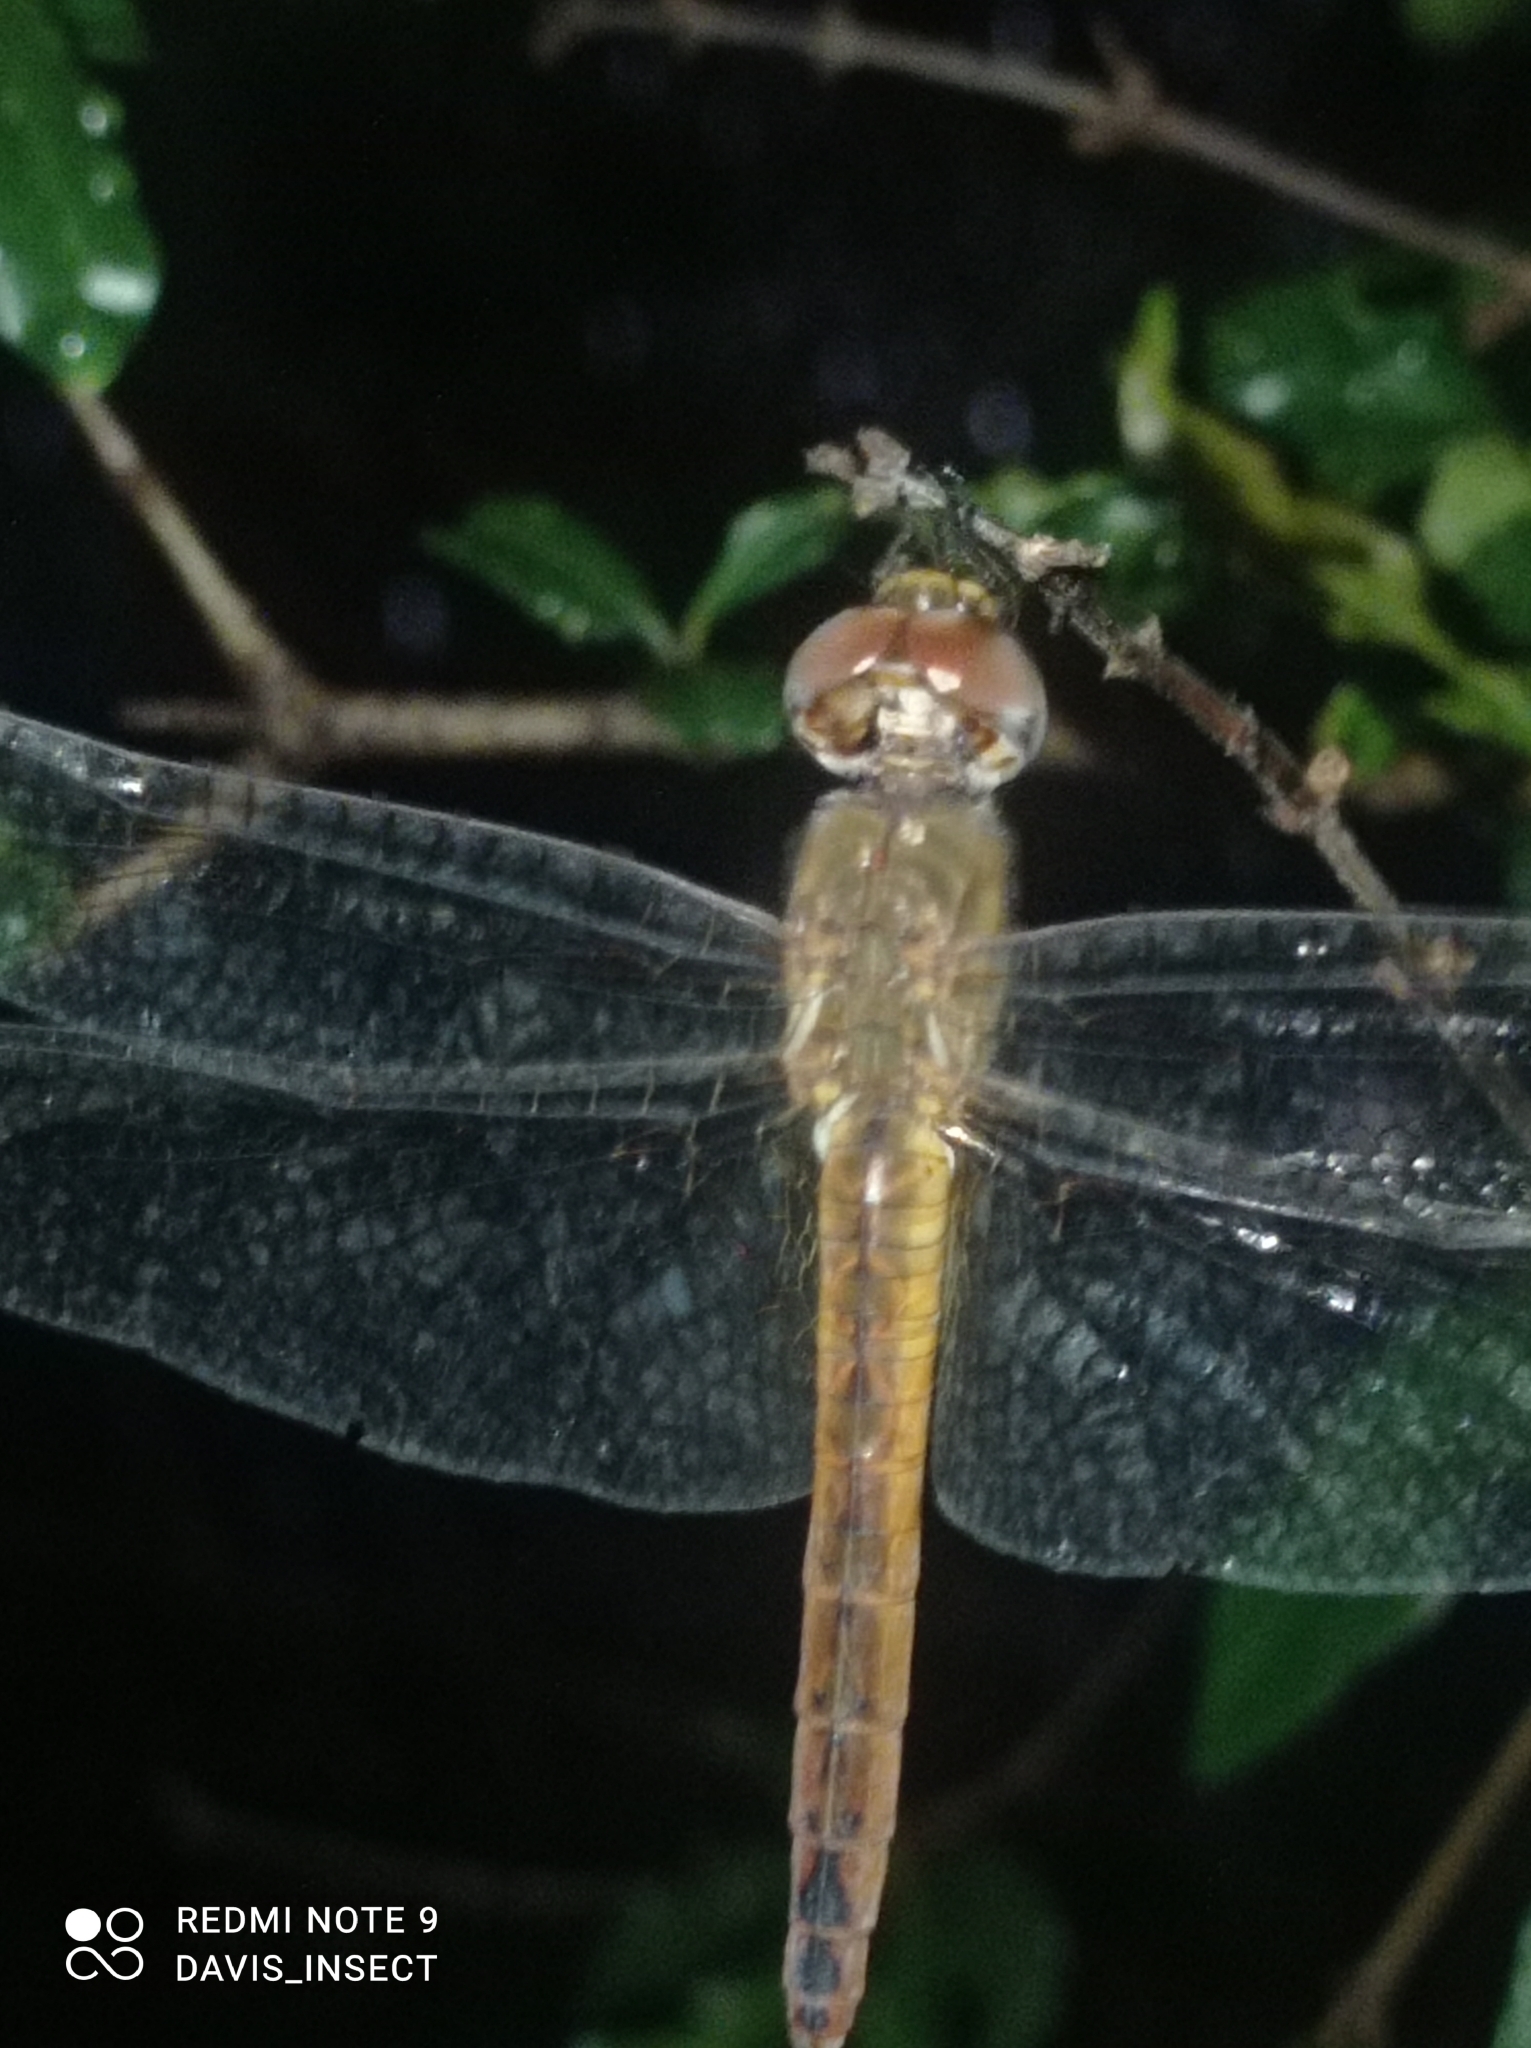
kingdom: Animalia
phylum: Arthropoda
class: Insecta
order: Odonata
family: Libellulidae
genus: Pantala
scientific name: Pantala flavescens
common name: Wandering glider
